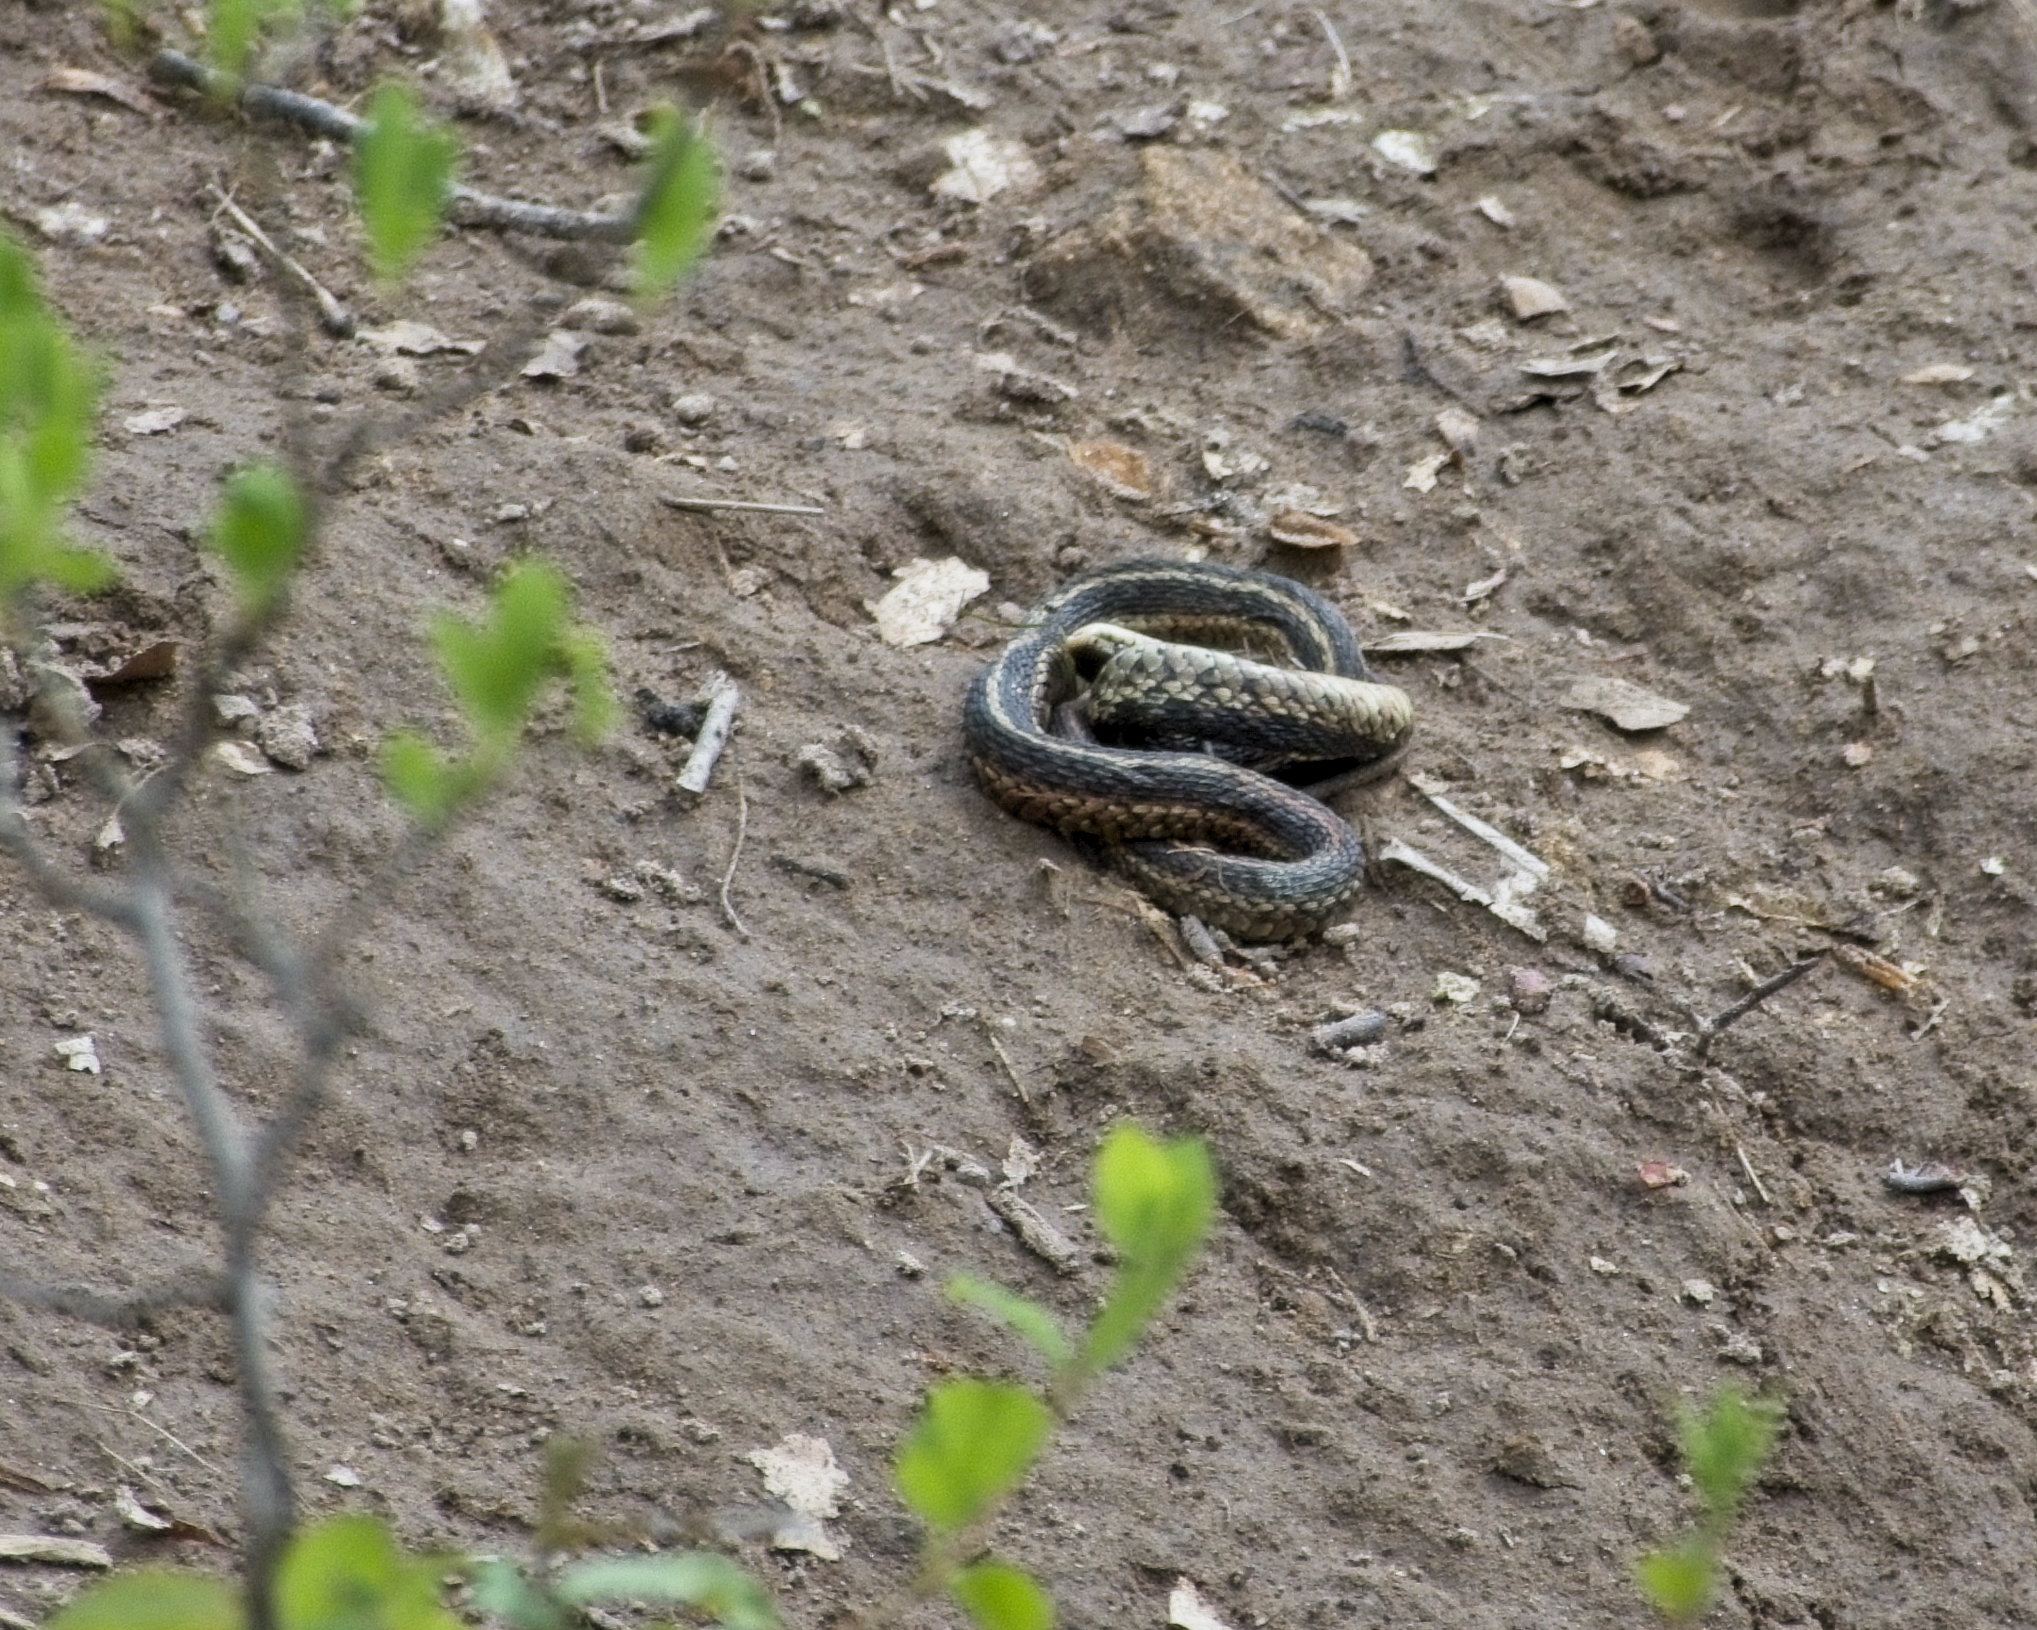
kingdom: Animalia
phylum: Chordata
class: Squamata
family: Colubridae
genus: Thamnophis
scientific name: Thamnophis sirtalis
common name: Common garter snake
